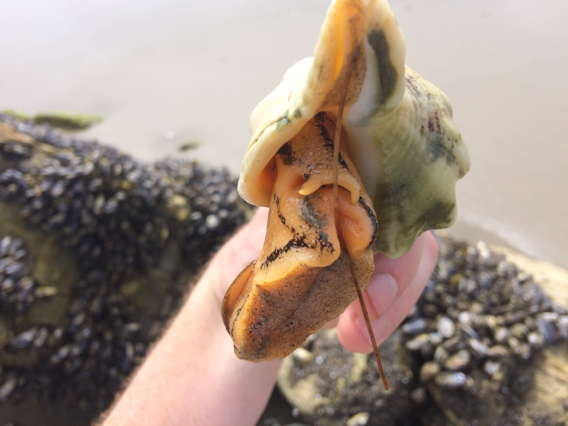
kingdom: Animalia
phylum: Mollusca
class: Gastropoda
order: Neogastropoda
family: Austrosiphonidae
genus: Kelletia
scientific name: Kelletia kelletii
